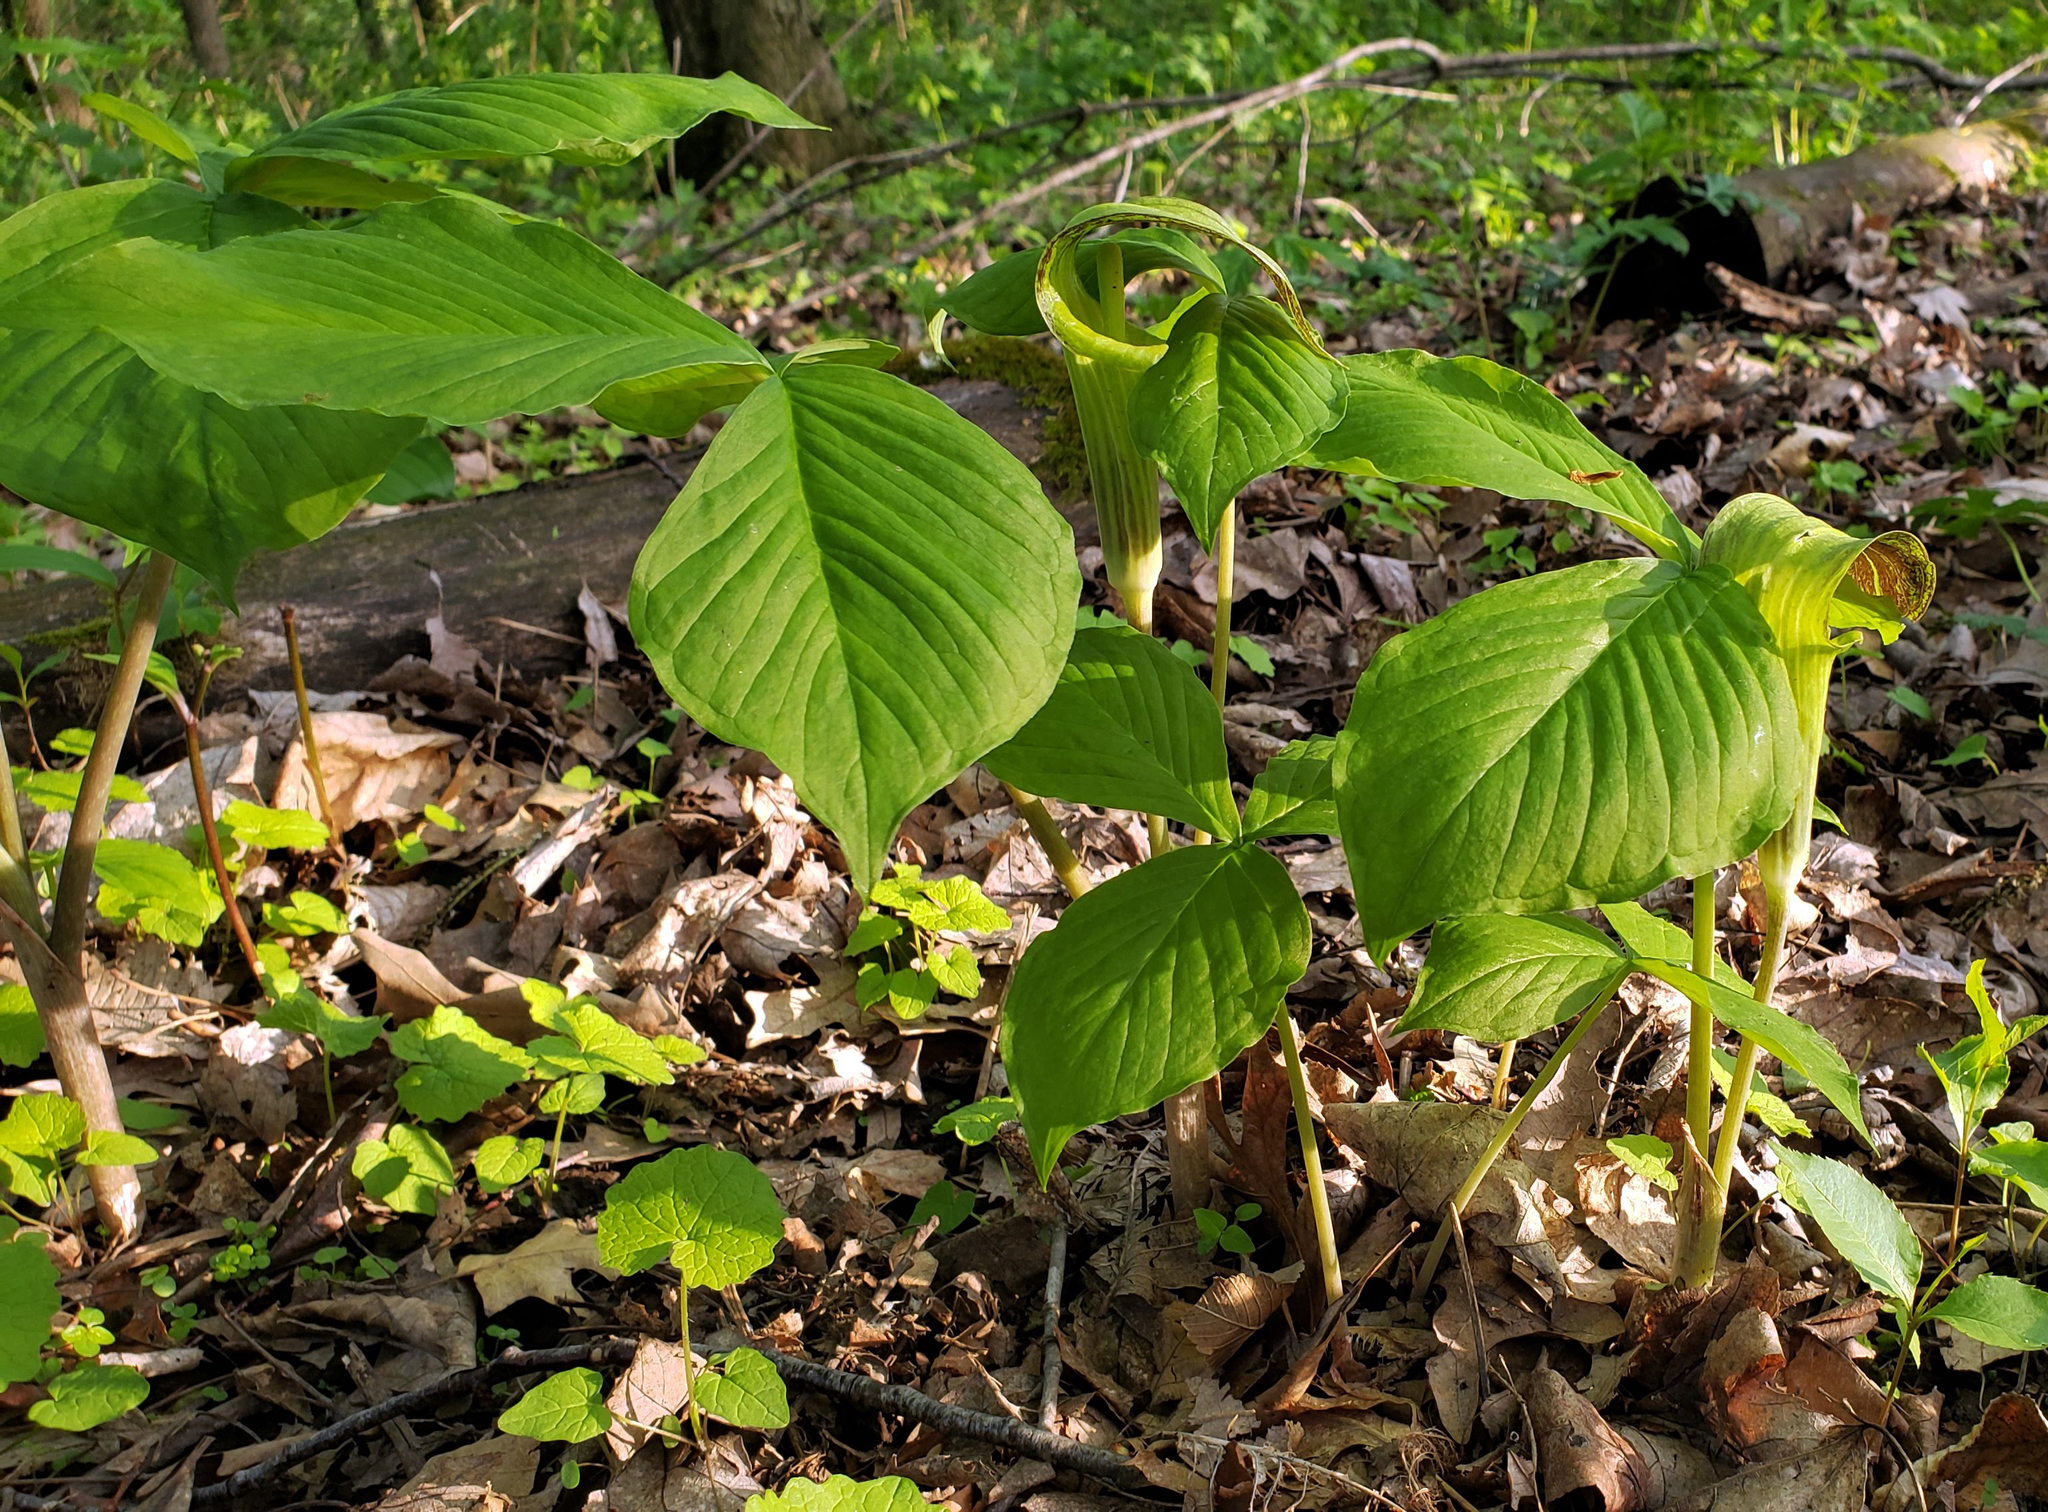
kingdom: Plantae
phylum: Tracheophyta
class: Liliopsida
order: Alismatales
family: Araceae
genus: Arisaema
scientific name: Arisaema triphyllum
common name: Jack-in-the-pulpit
